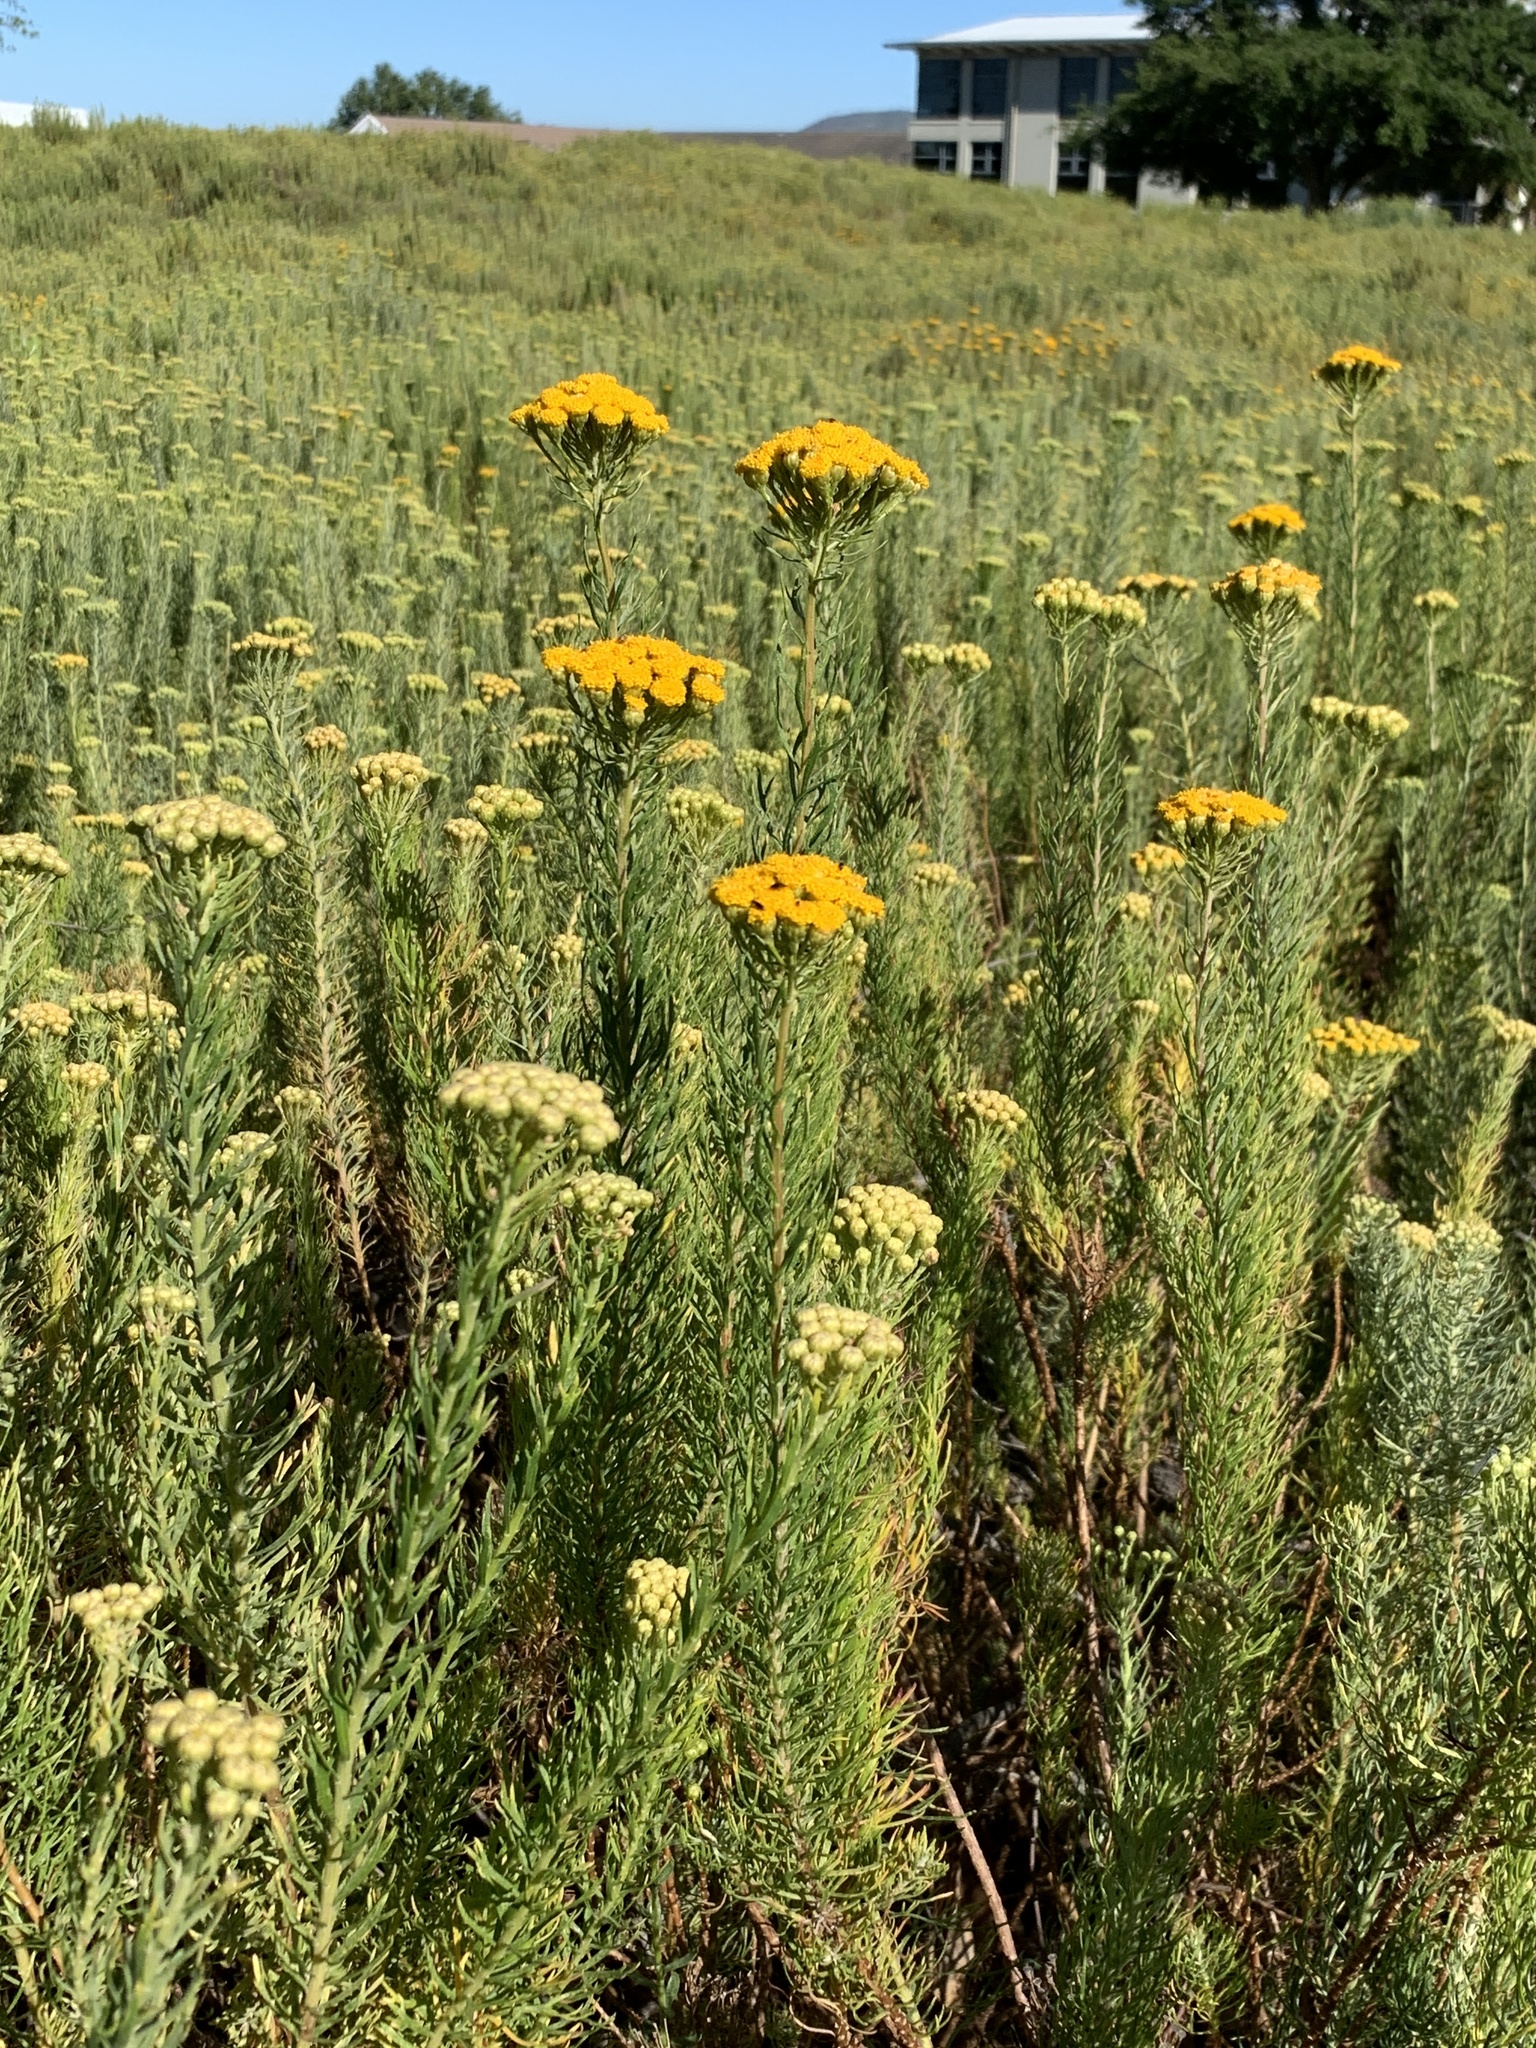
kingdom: Plantae
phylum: Tracheophyta
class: Magnoliopsida
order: Asterales
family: Asteraceae
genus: Athanasia
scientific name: Athanasia crithmifolia
